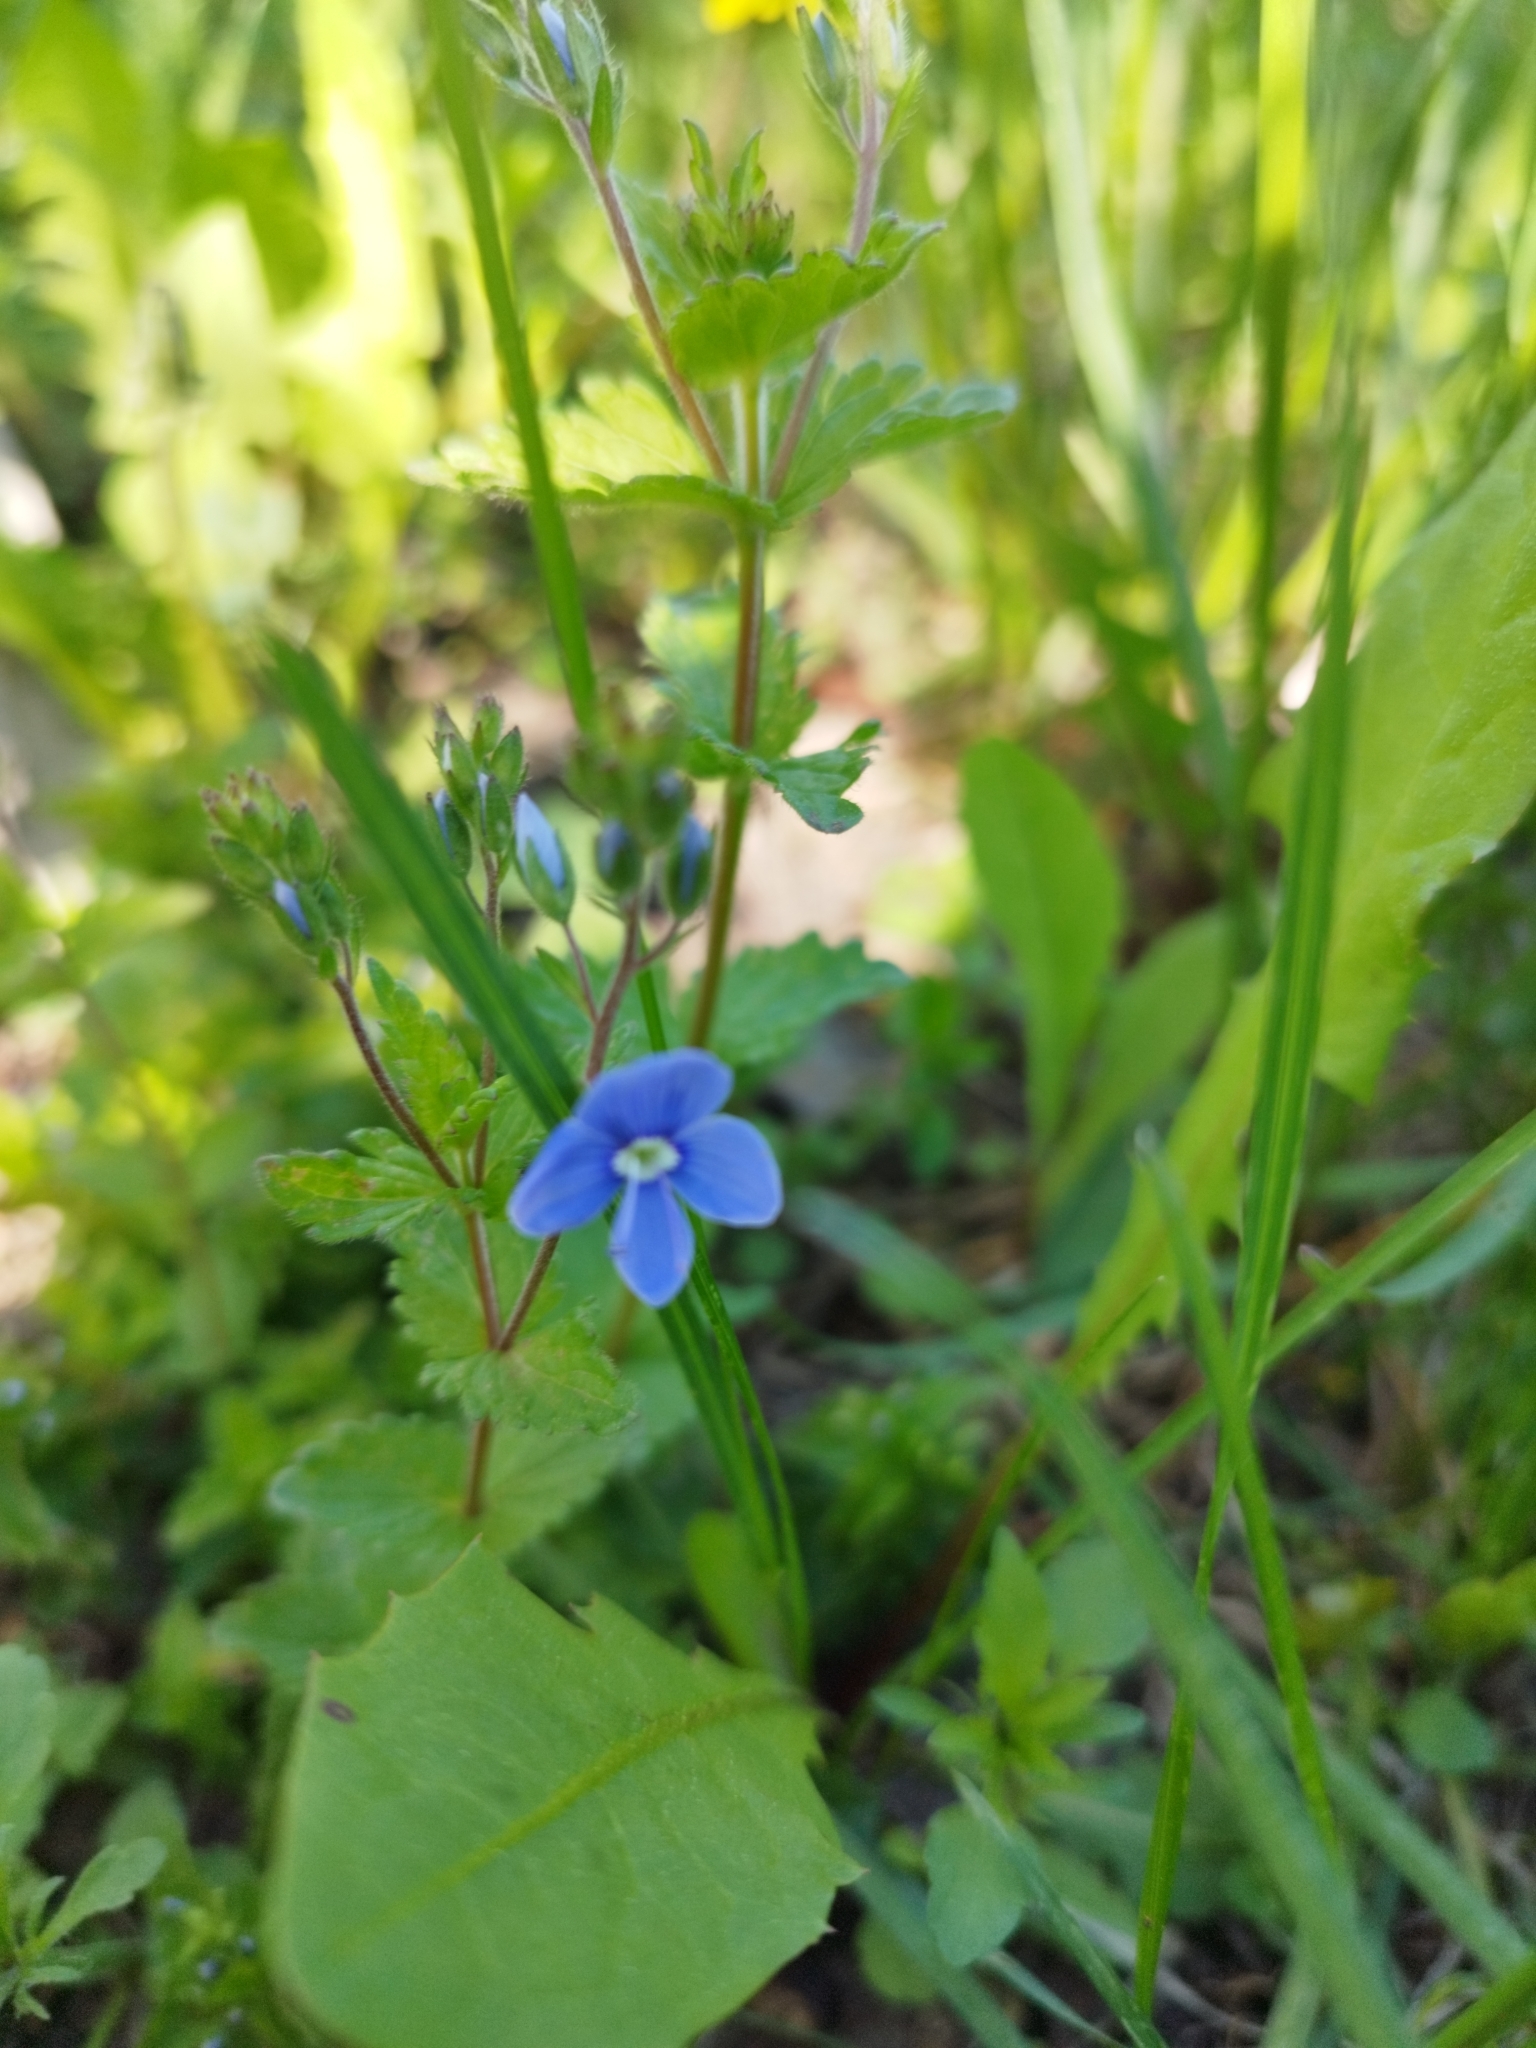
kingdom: Plantae
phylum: Tracheophyta
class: Magnoliopsida
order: Lamiales
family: Plantaginaceae
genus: Veronica
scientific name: Veronica chamaedrys
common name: Germander speedwell
